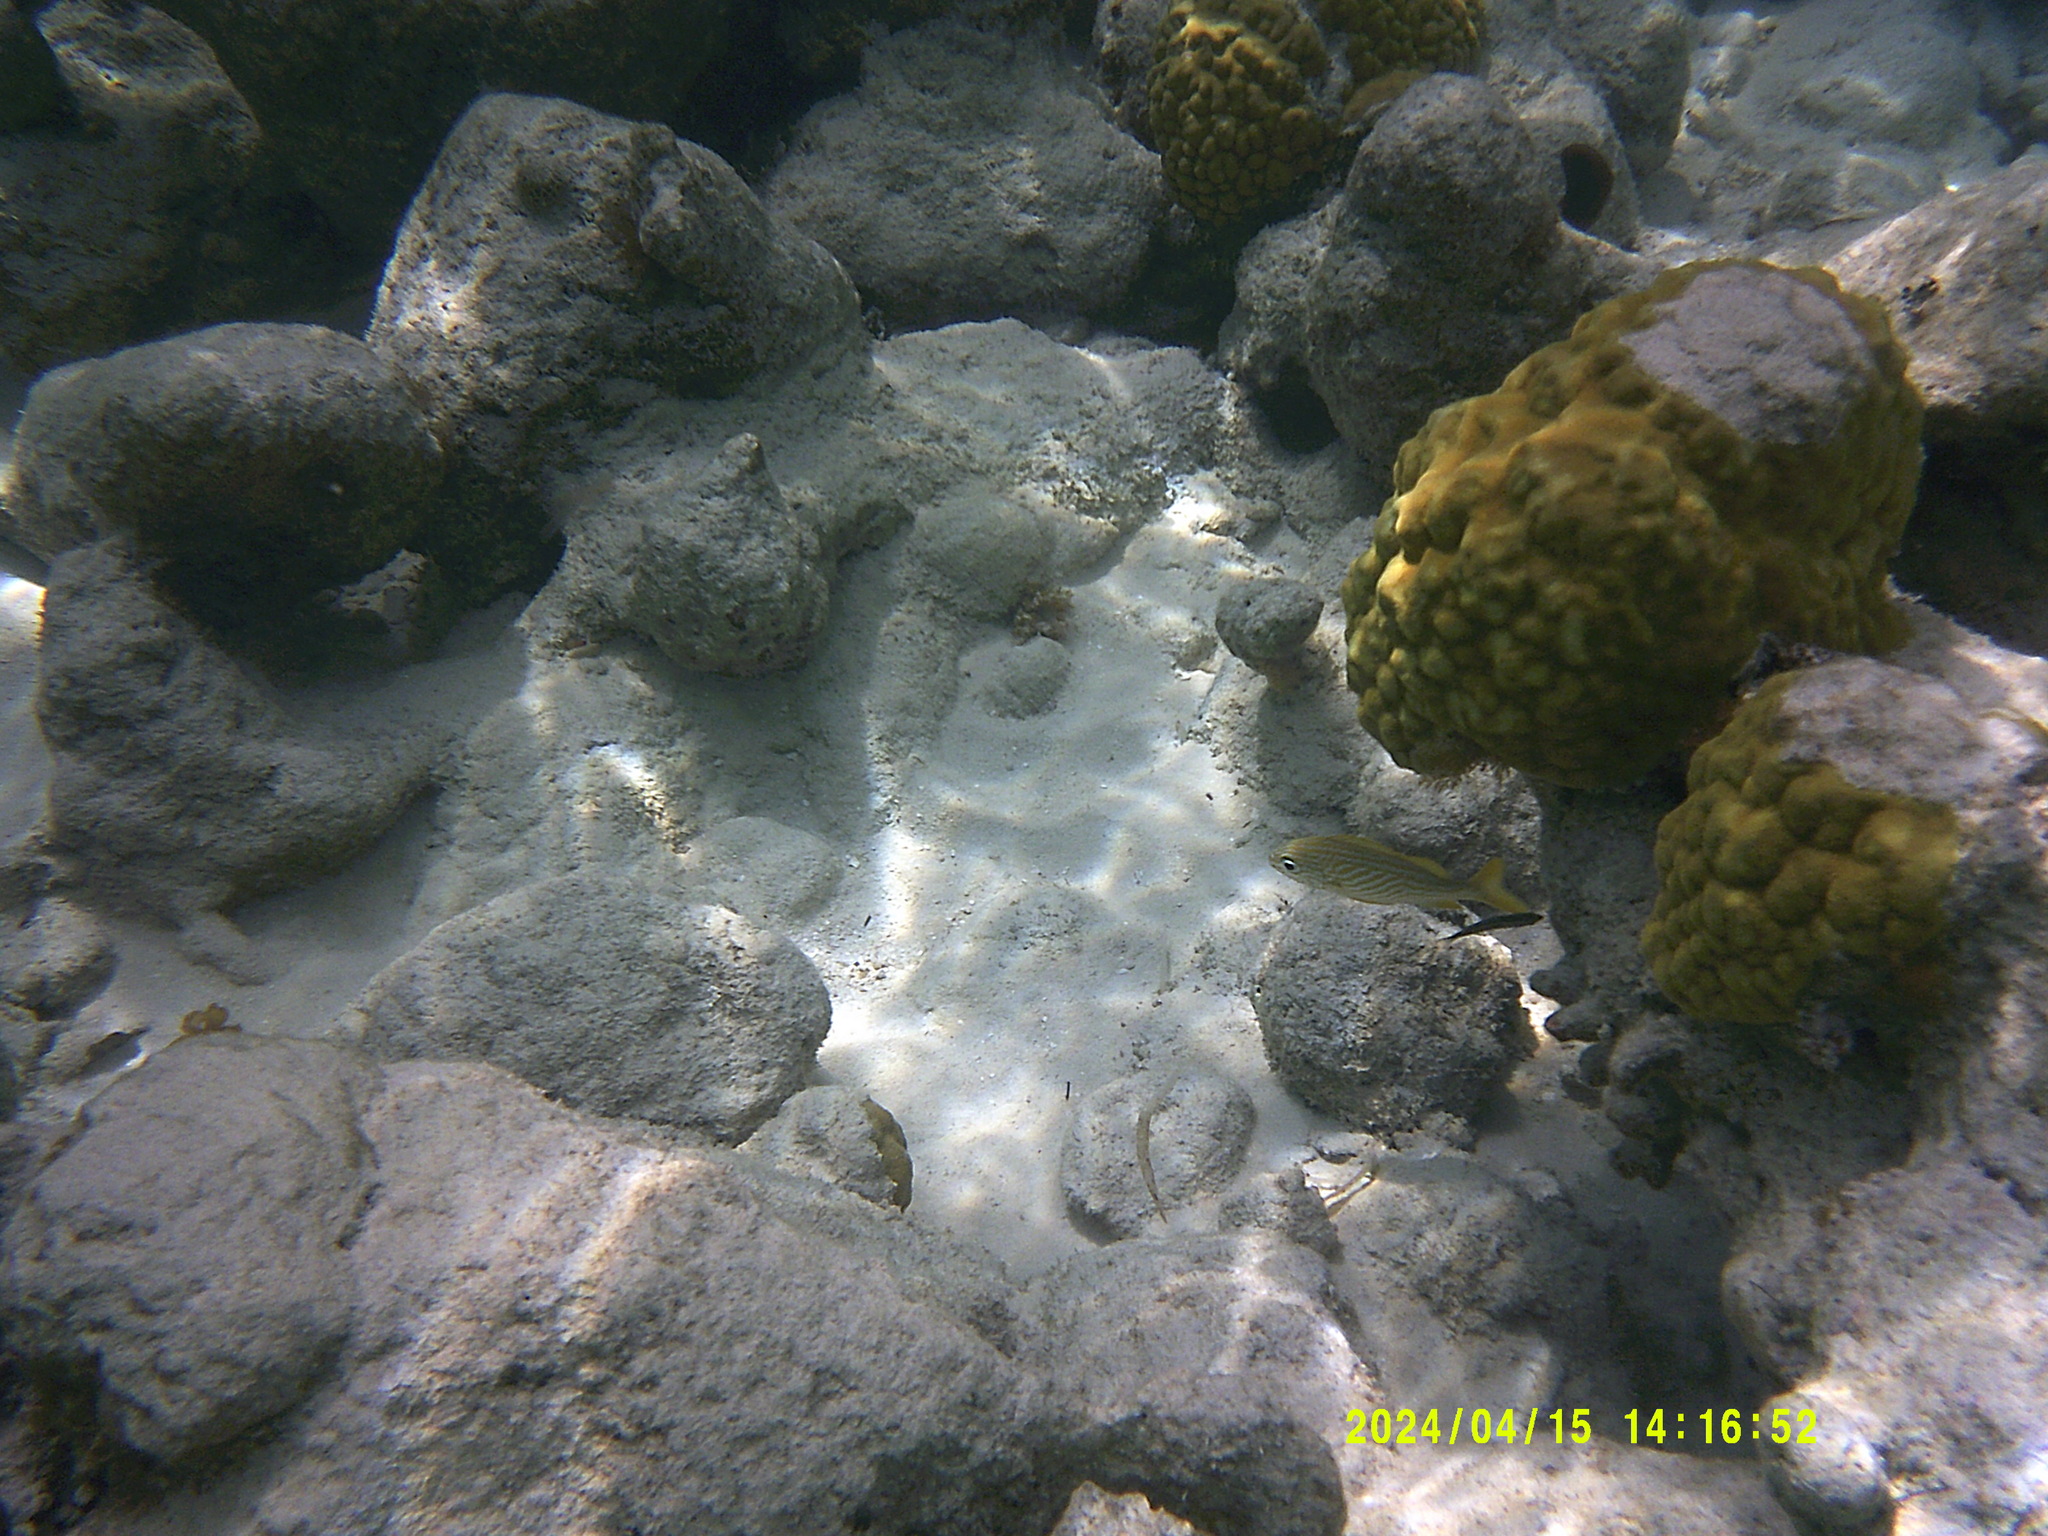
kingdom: Animalia
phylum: Chordata
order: Perciformes
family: Haemulidae
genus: Haemulon
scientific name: Haemulon flavolineatum
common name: French grunt
